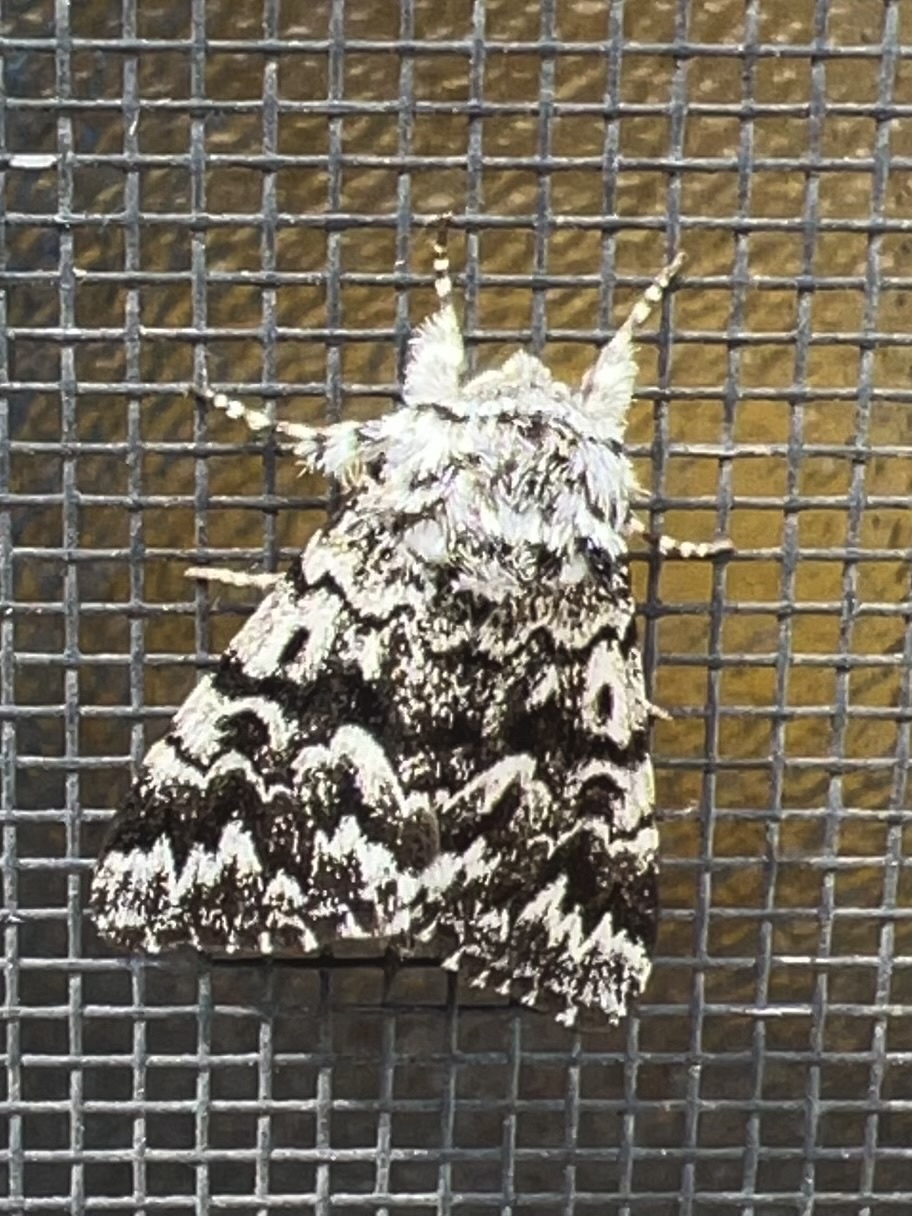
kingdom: Animalia
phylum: Arthropoda
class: Insecta
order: Lepidoptera
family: Noctuidae
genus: Panthea
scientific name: Panthea acronyctoides
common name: Black zigzag moth
